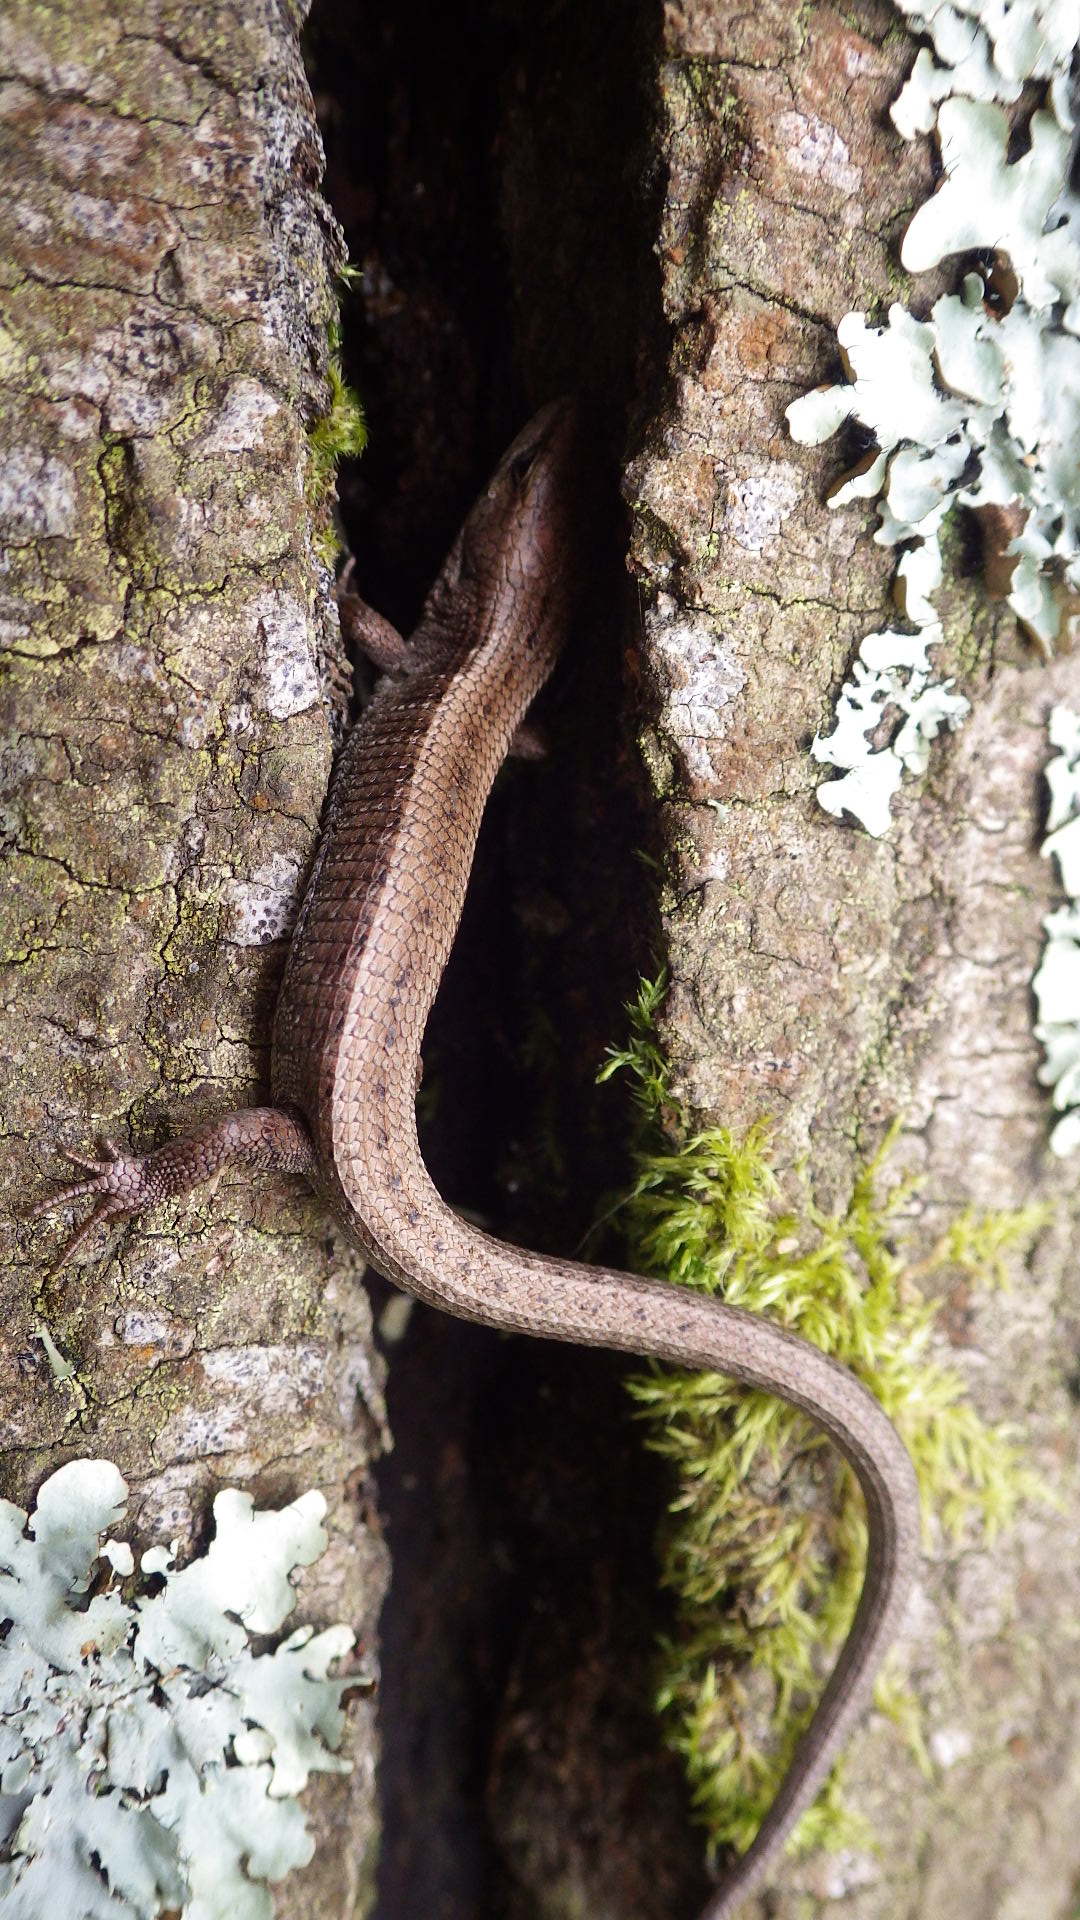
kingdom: Animalia
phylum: Chordata
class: Squamata
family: Anguidae
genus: Elgaria
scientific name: Elgaria coerulea
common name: Northern alligator lizard
